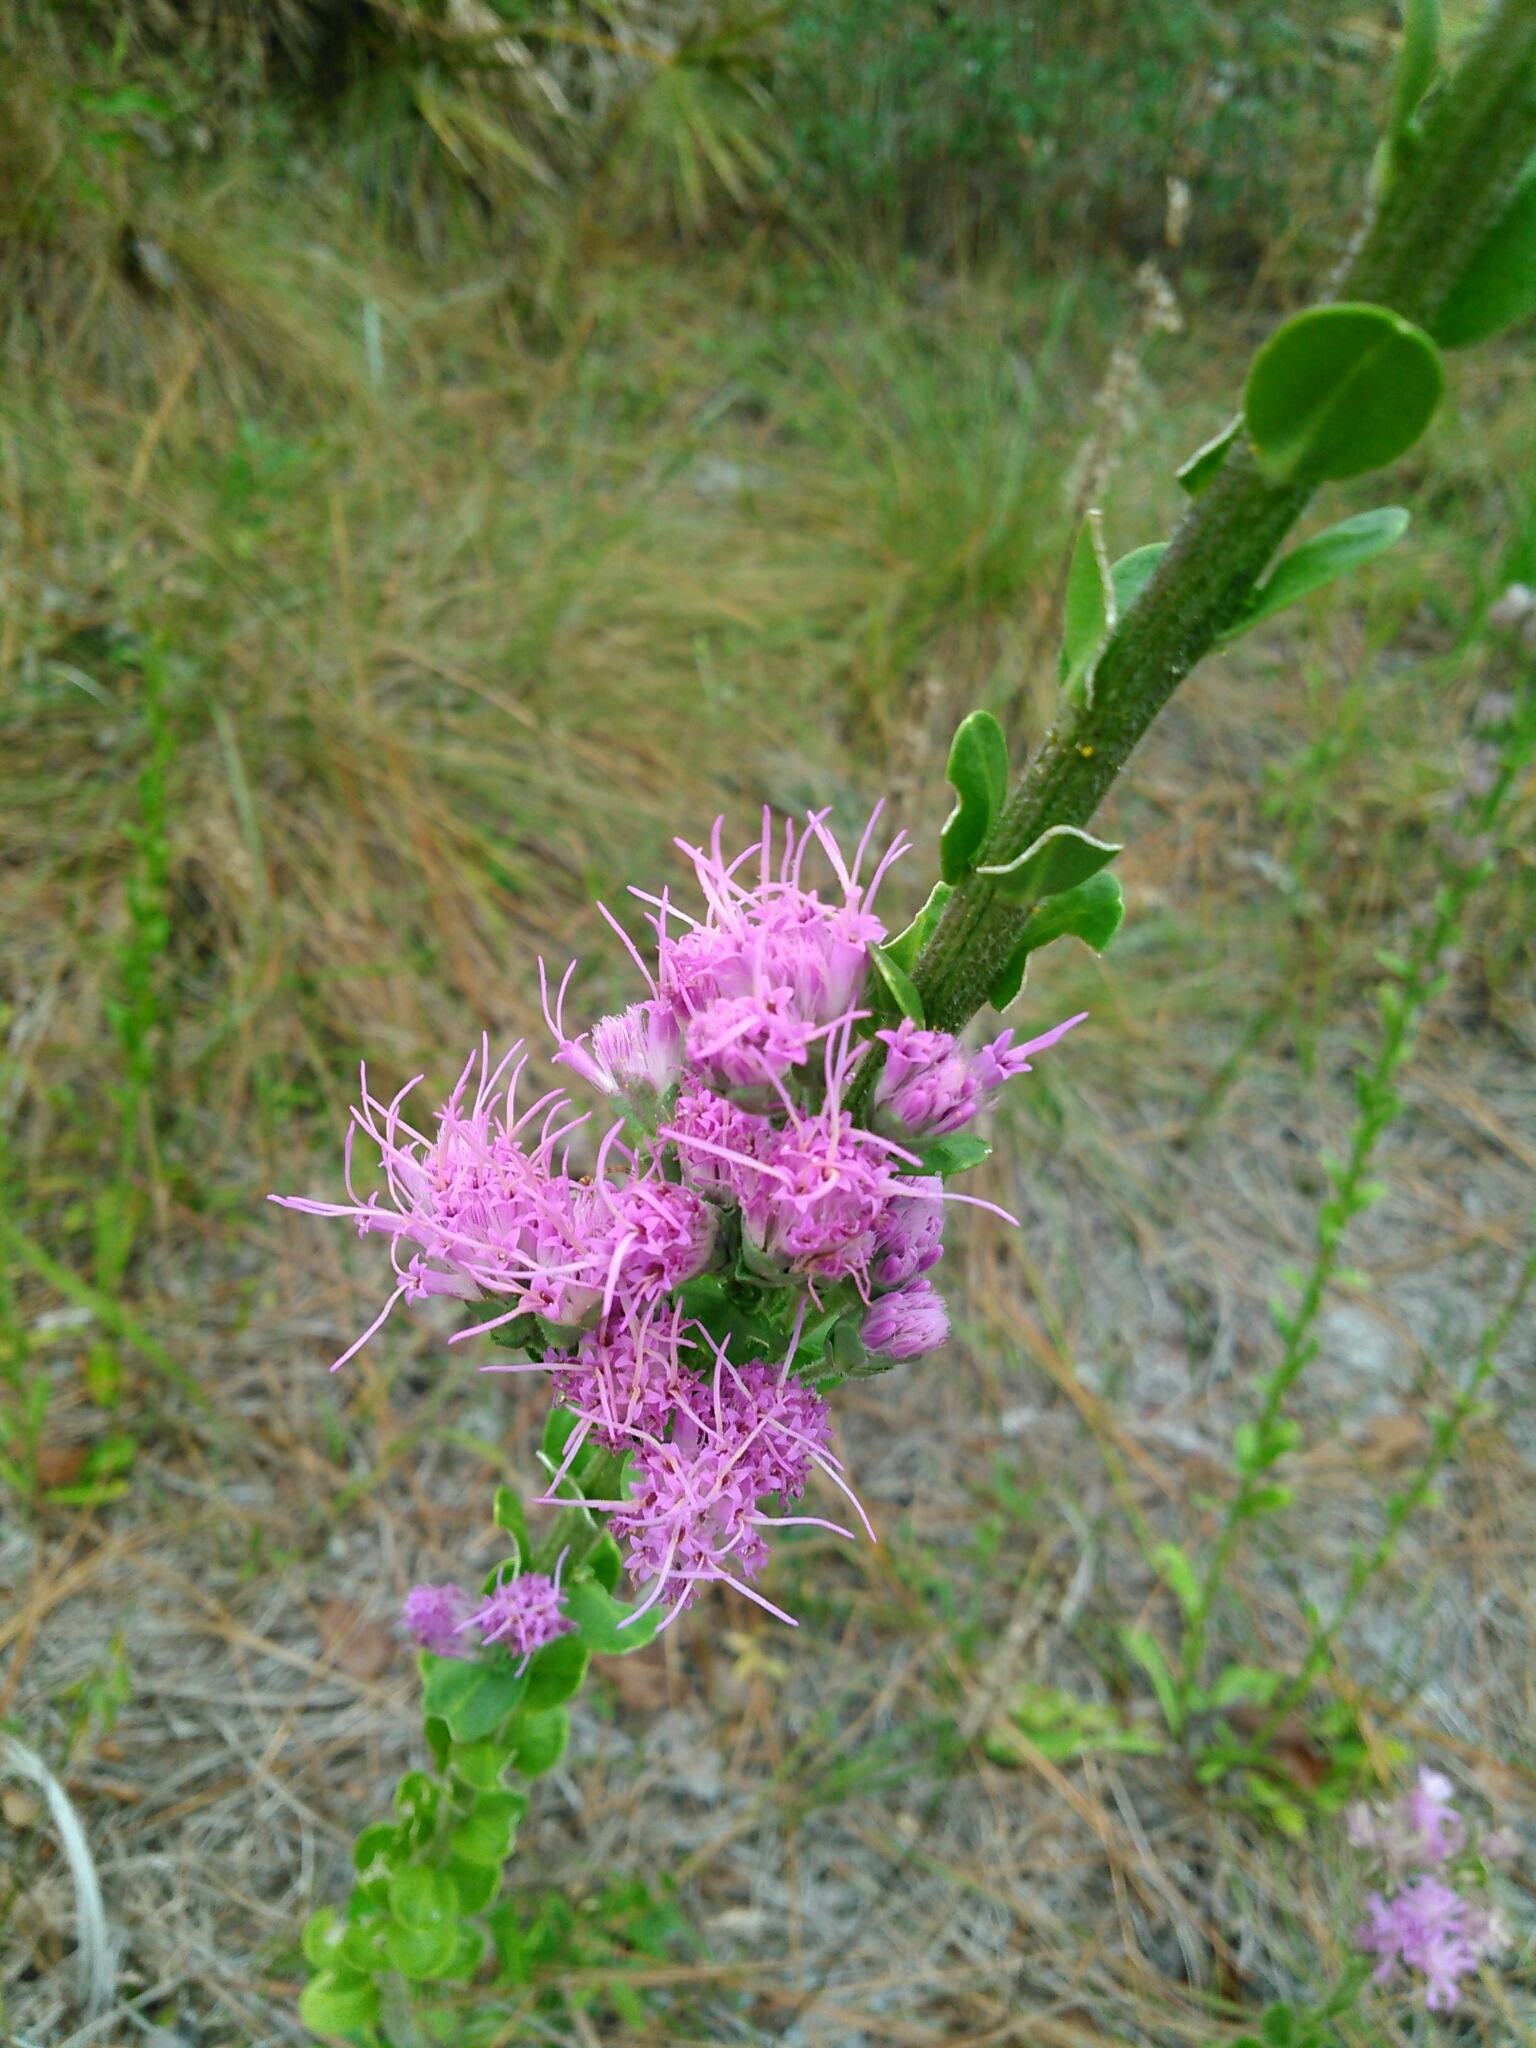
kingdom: Plantae
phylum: Tracheophyta
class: Magnoliopsida
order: Asterales
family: Asteraceae
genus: Carphephorus
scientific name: Carphephorus corymbosus
